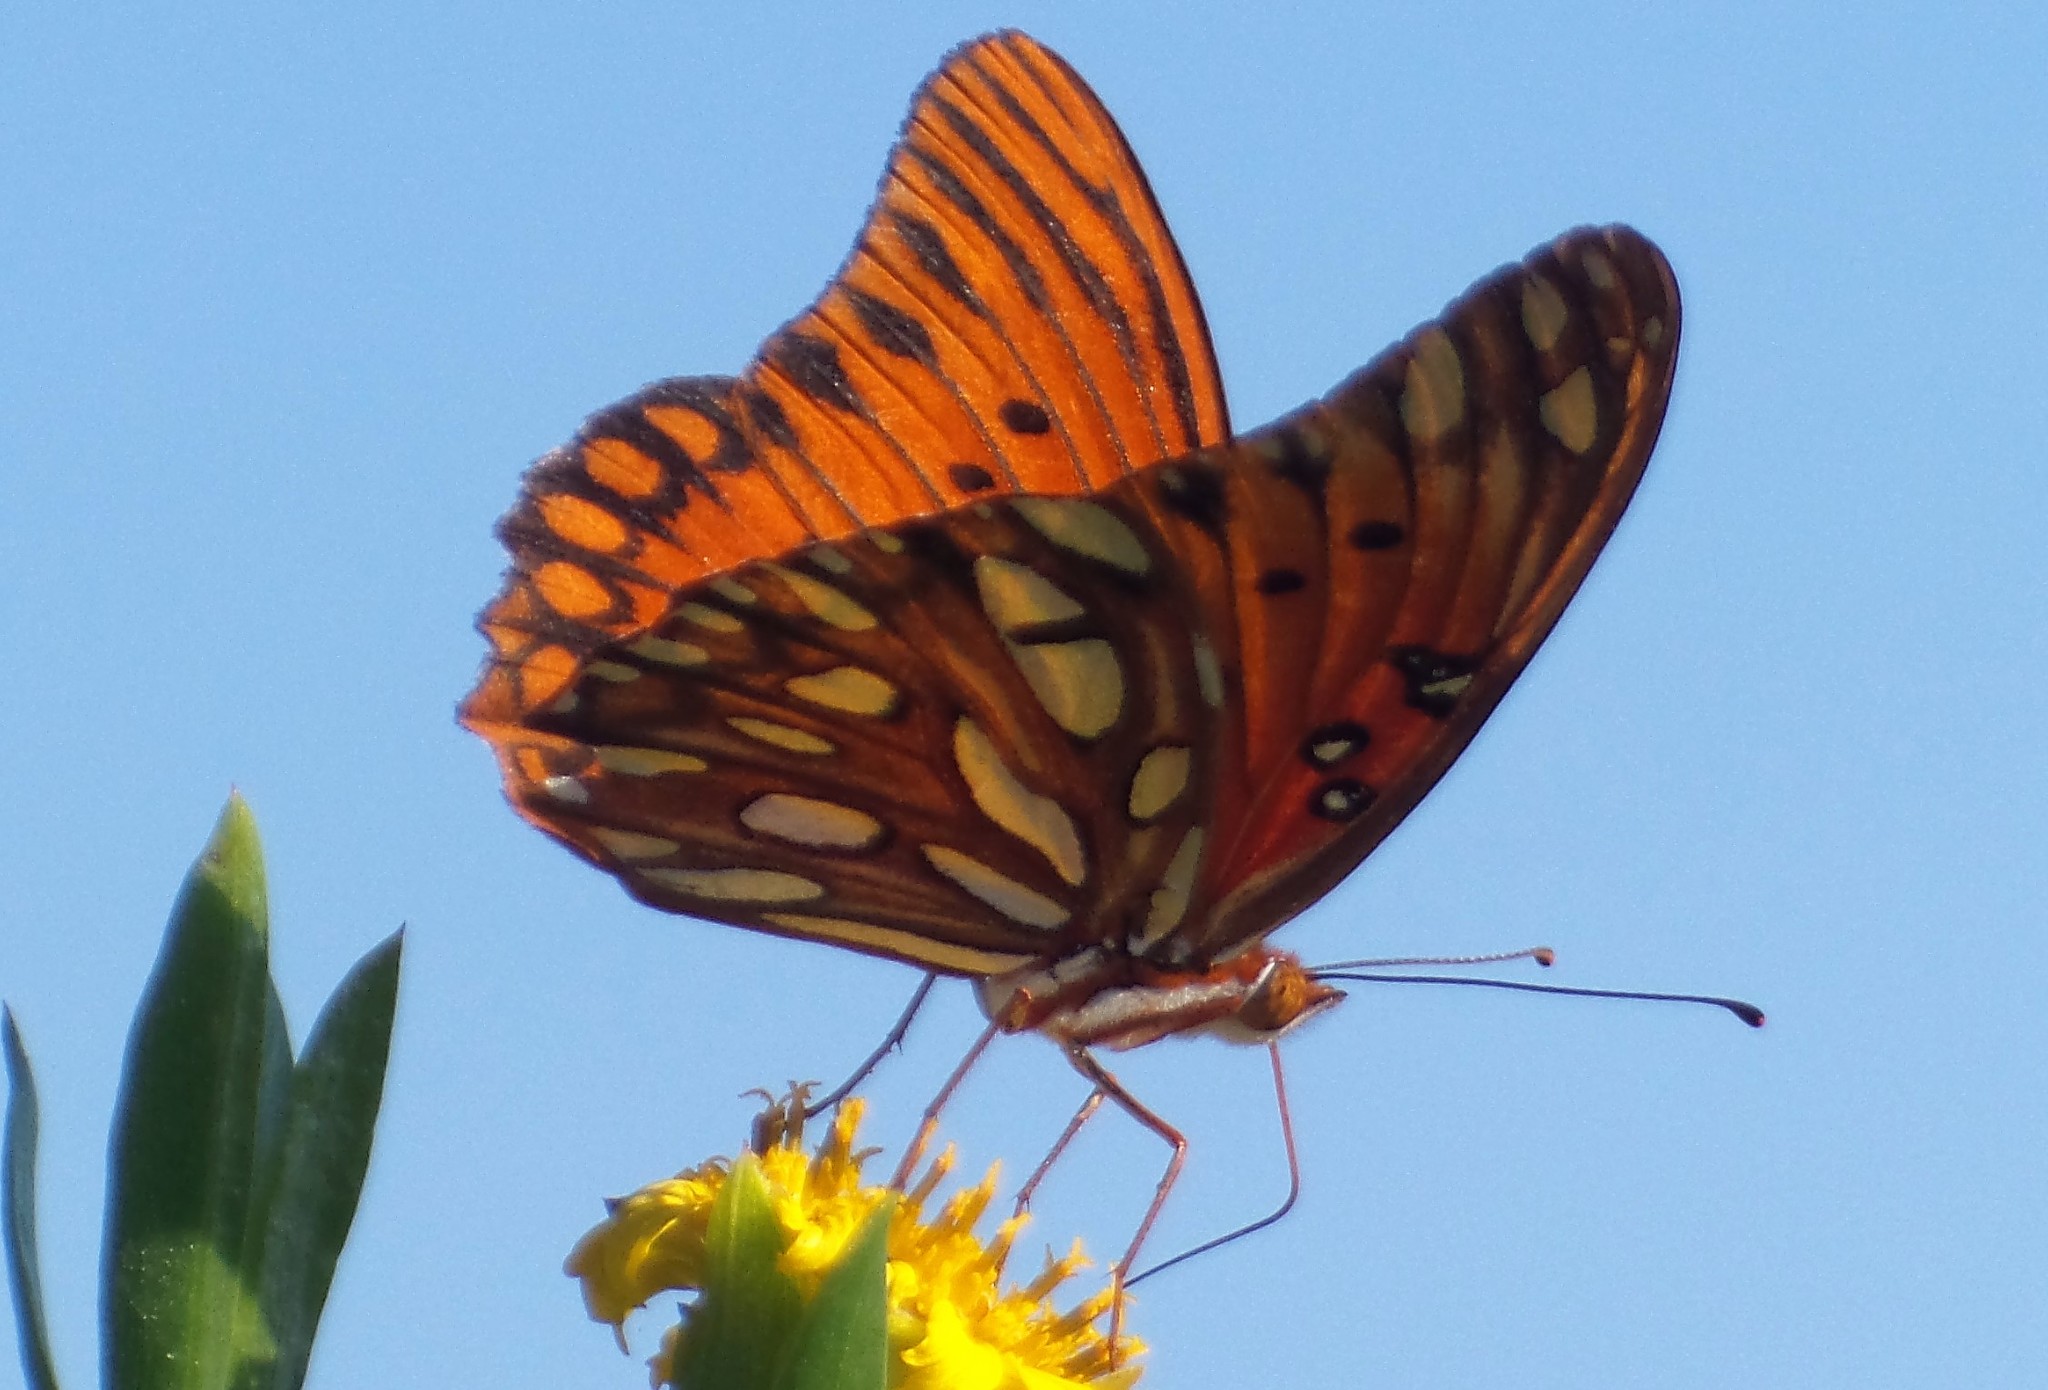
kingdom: Animalia
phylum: Arthropoda
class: Insecta
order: Lepidoptera
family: Nymphalidae
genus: Dione
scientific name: Dione vanillae
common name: Gulf fritillary
